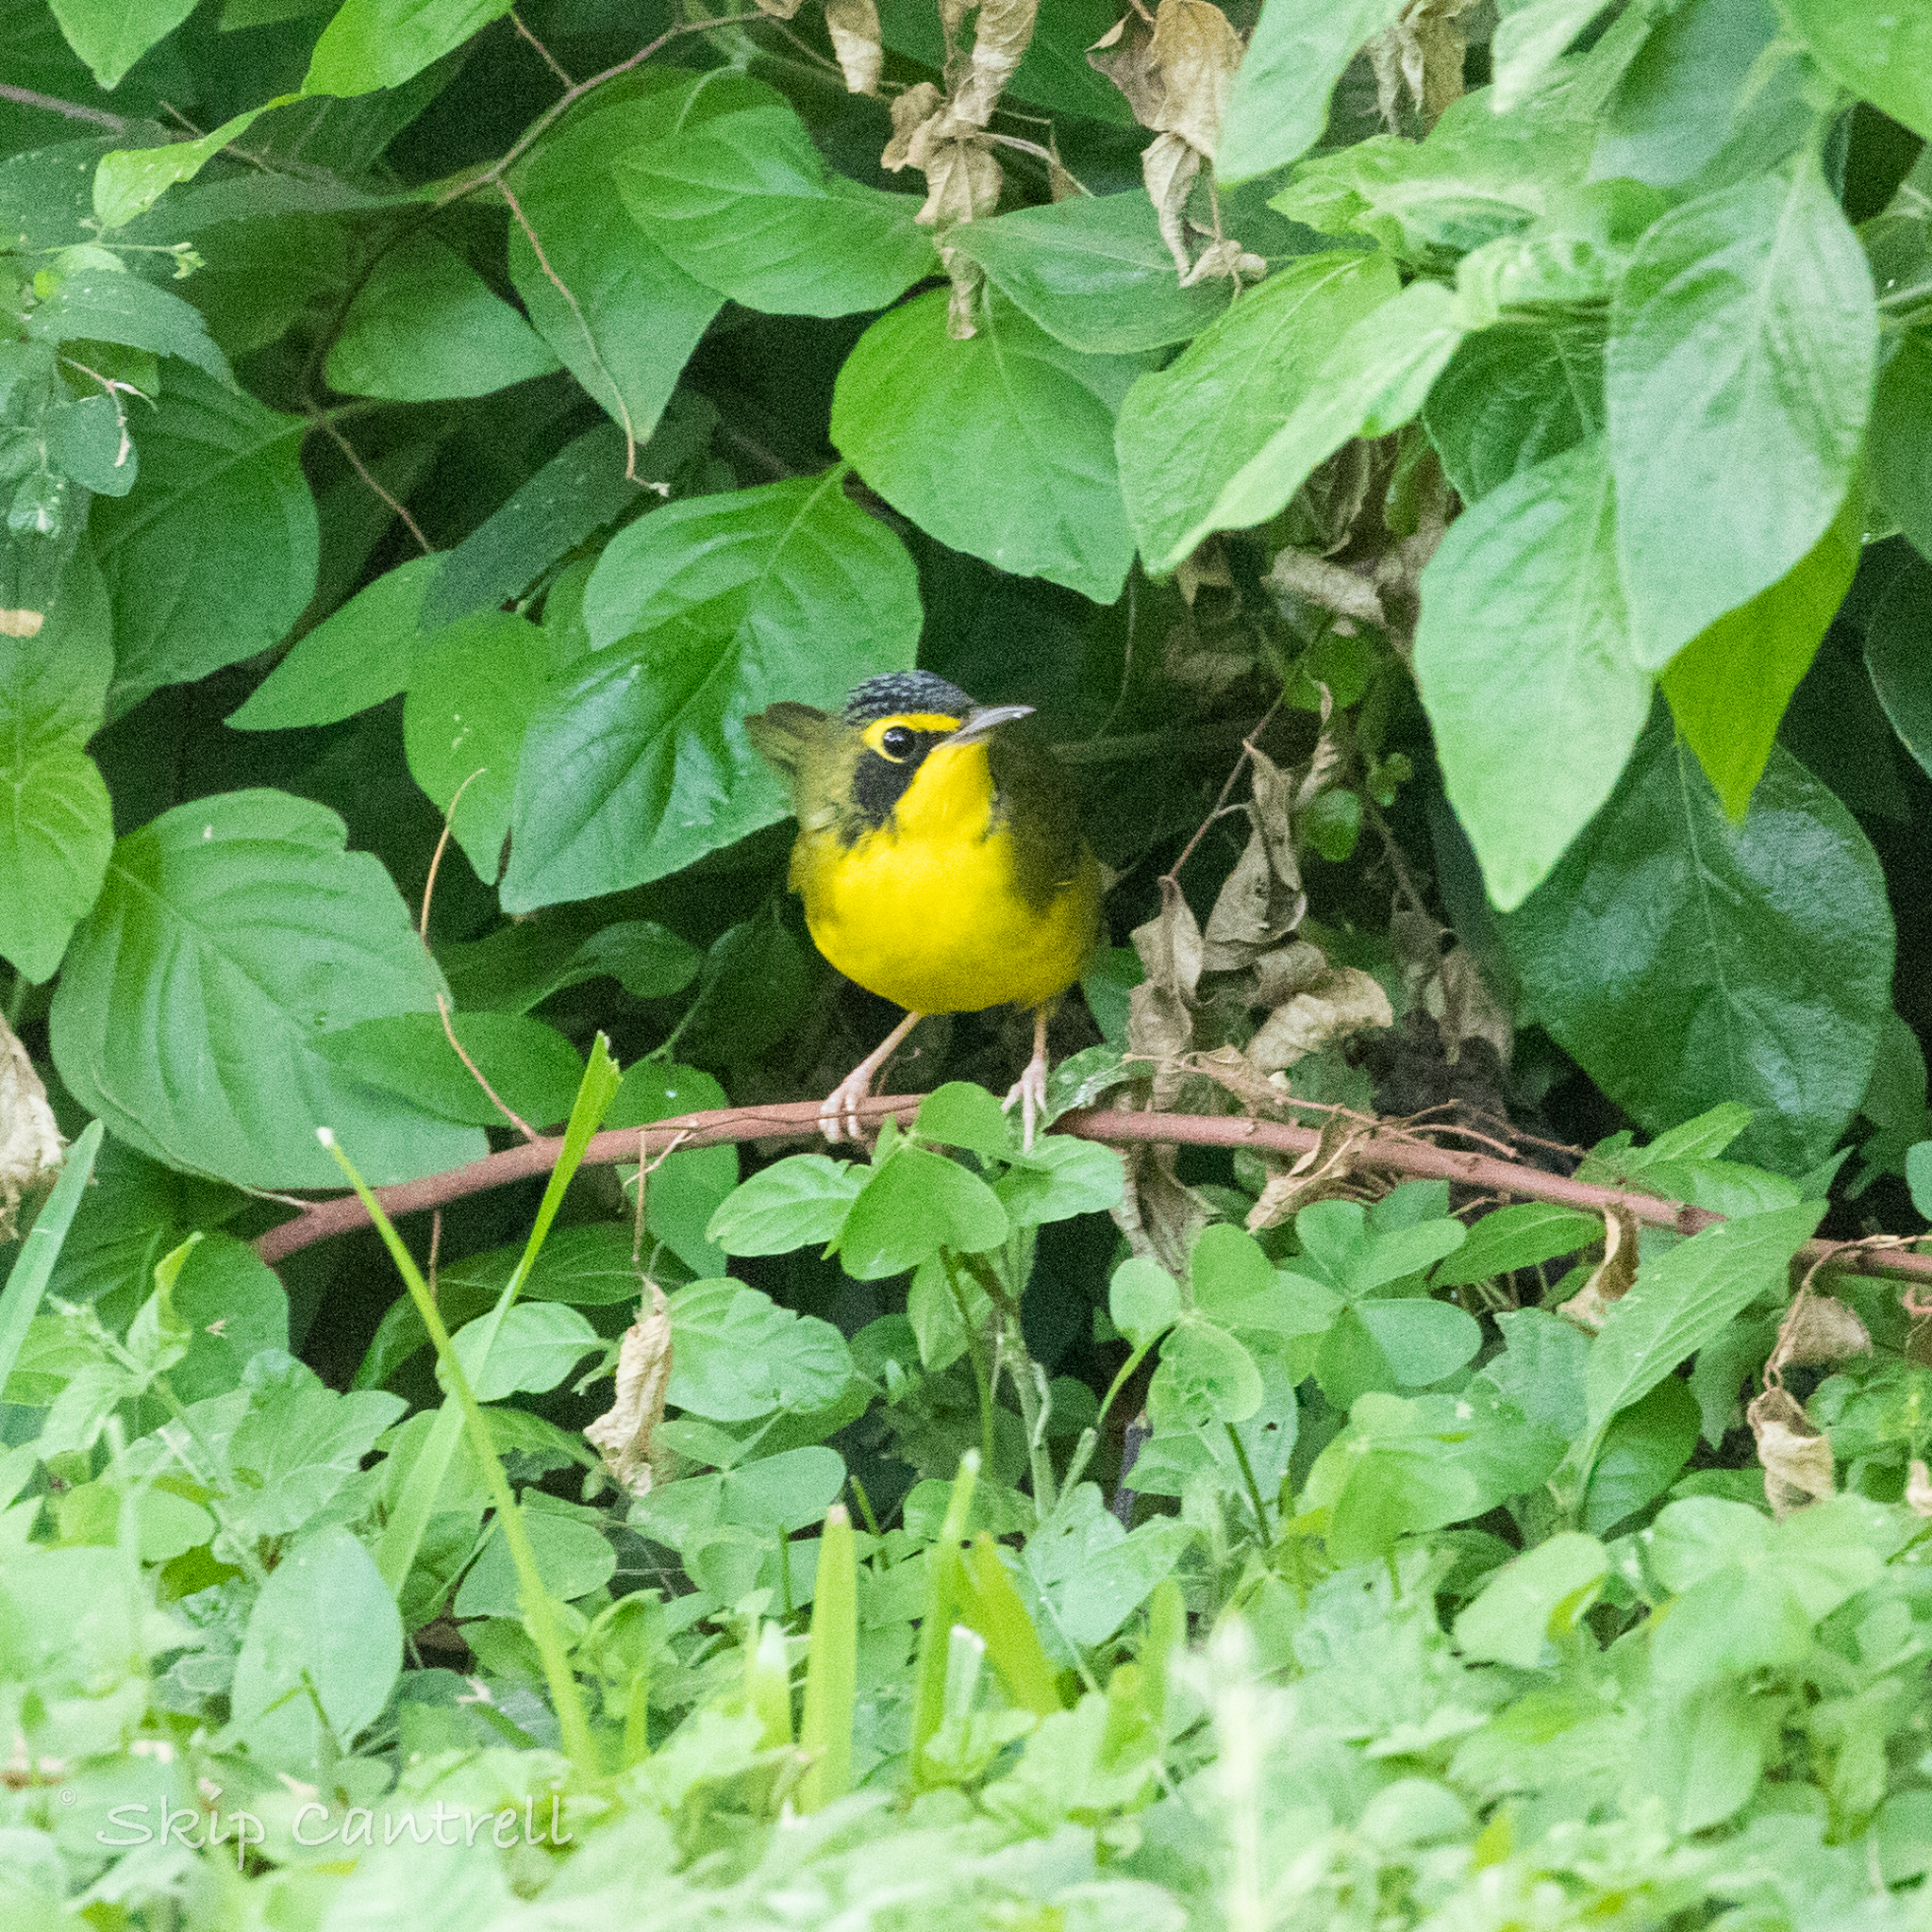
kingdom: Animalia
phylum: Chordata
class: Aves
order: Passeriformes
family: Parulidae
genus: Geothlypis
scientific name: Geothlypis formosa
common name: Kentucky warbler
